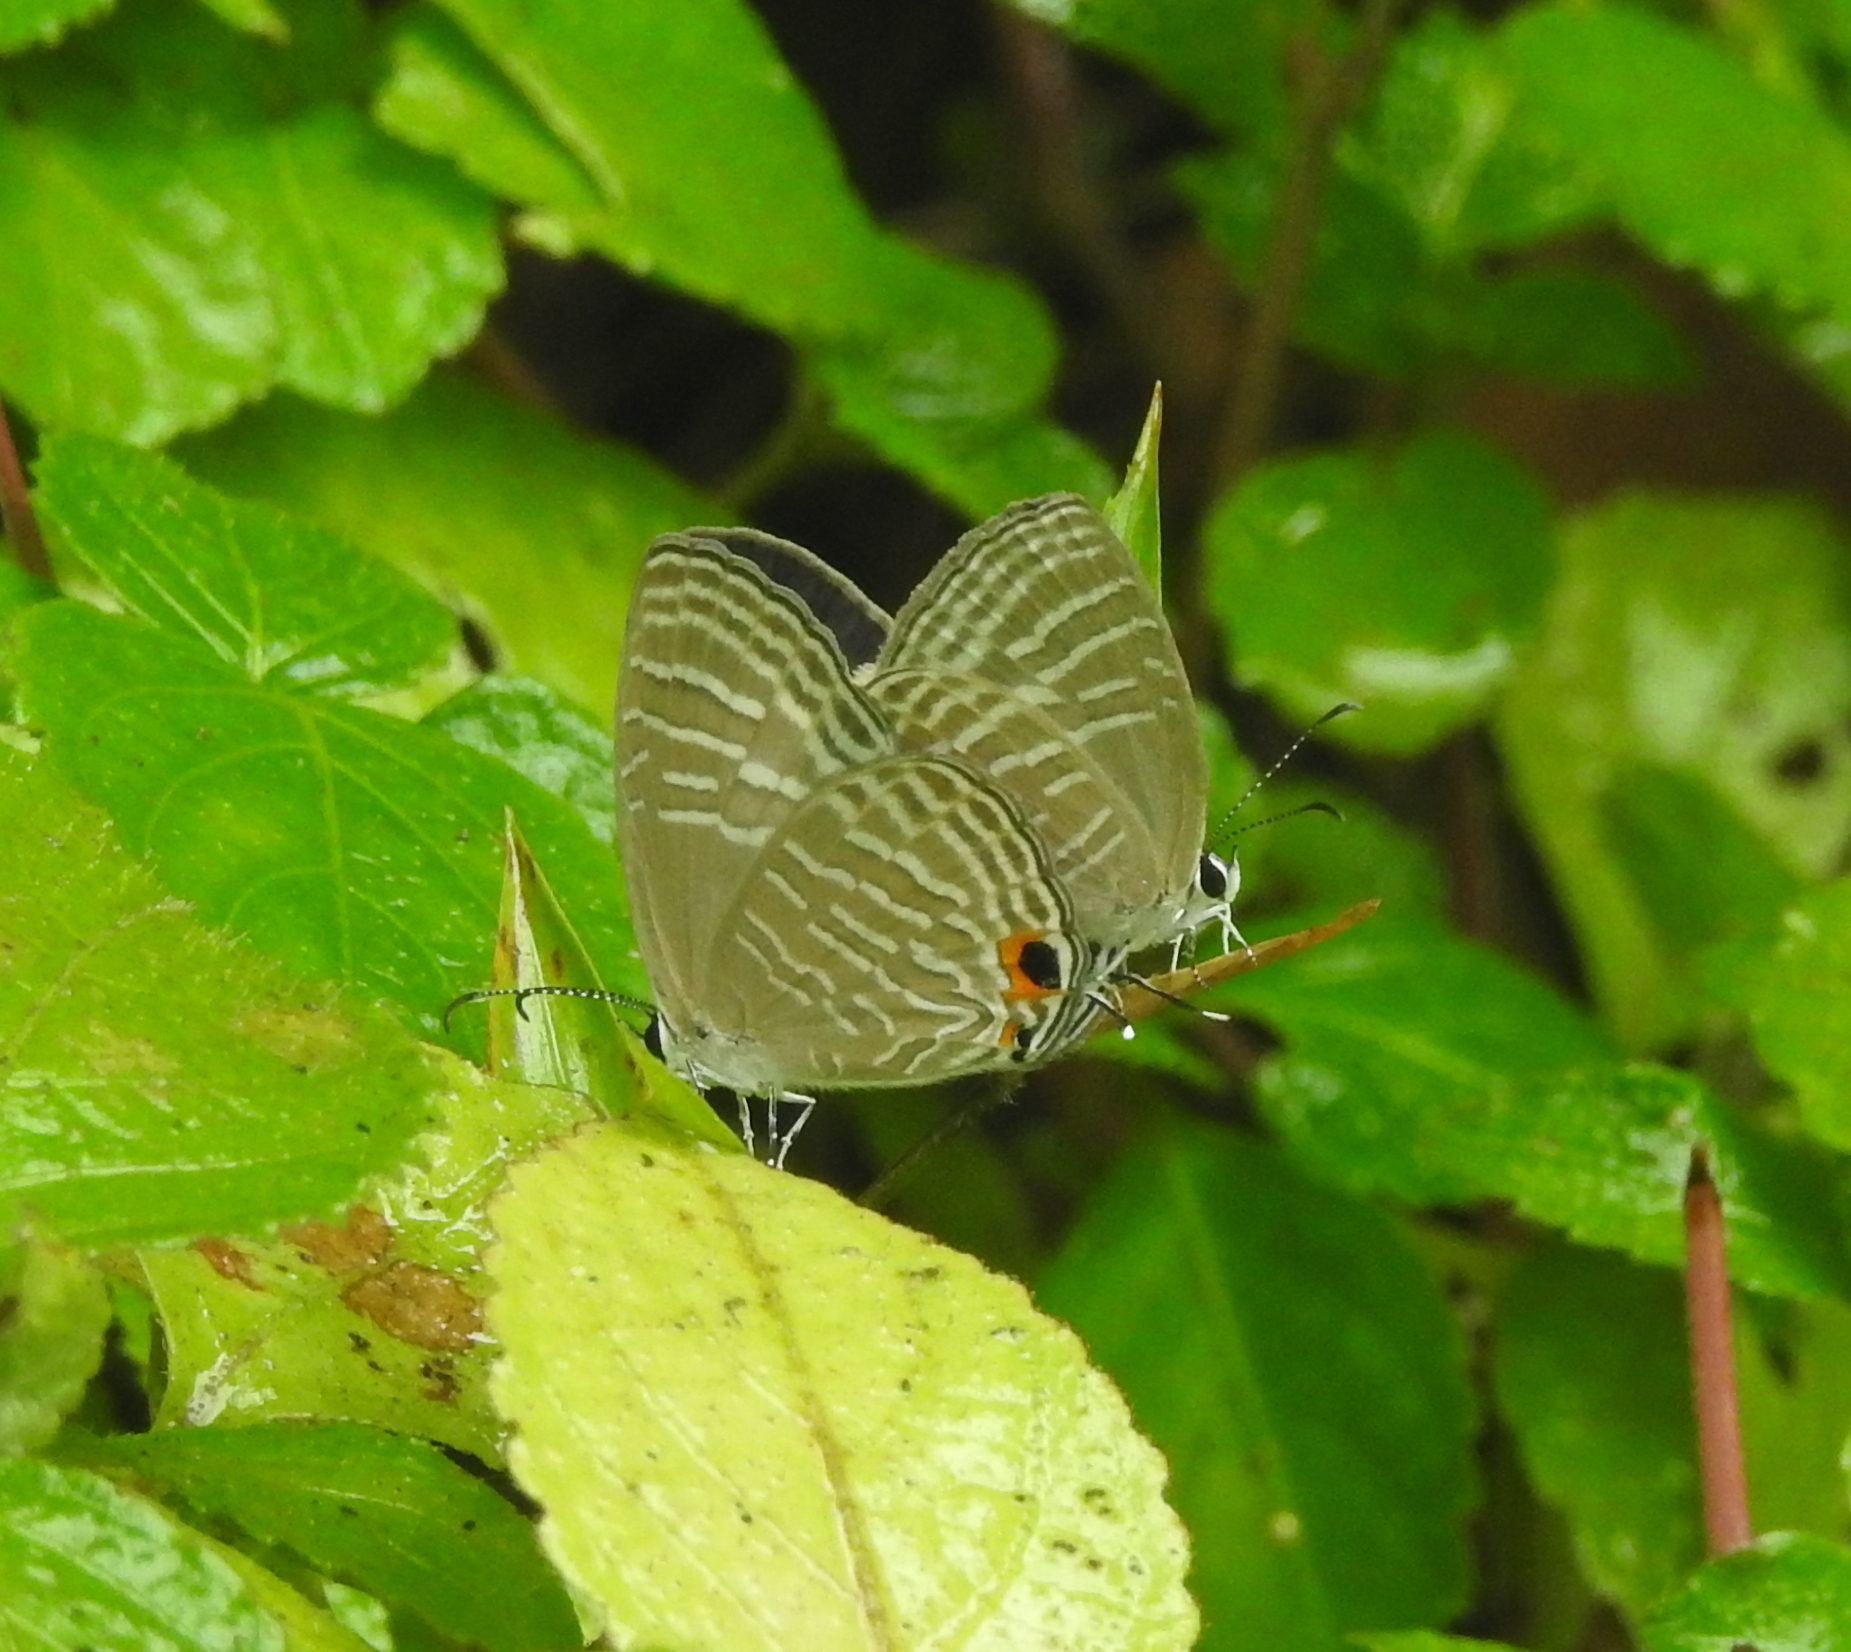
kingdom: Animalia
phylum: Arthropoda
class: Insecta
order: Lepidoptera
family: Lycaenidae
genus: Jamides
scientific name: Jamides celeno
